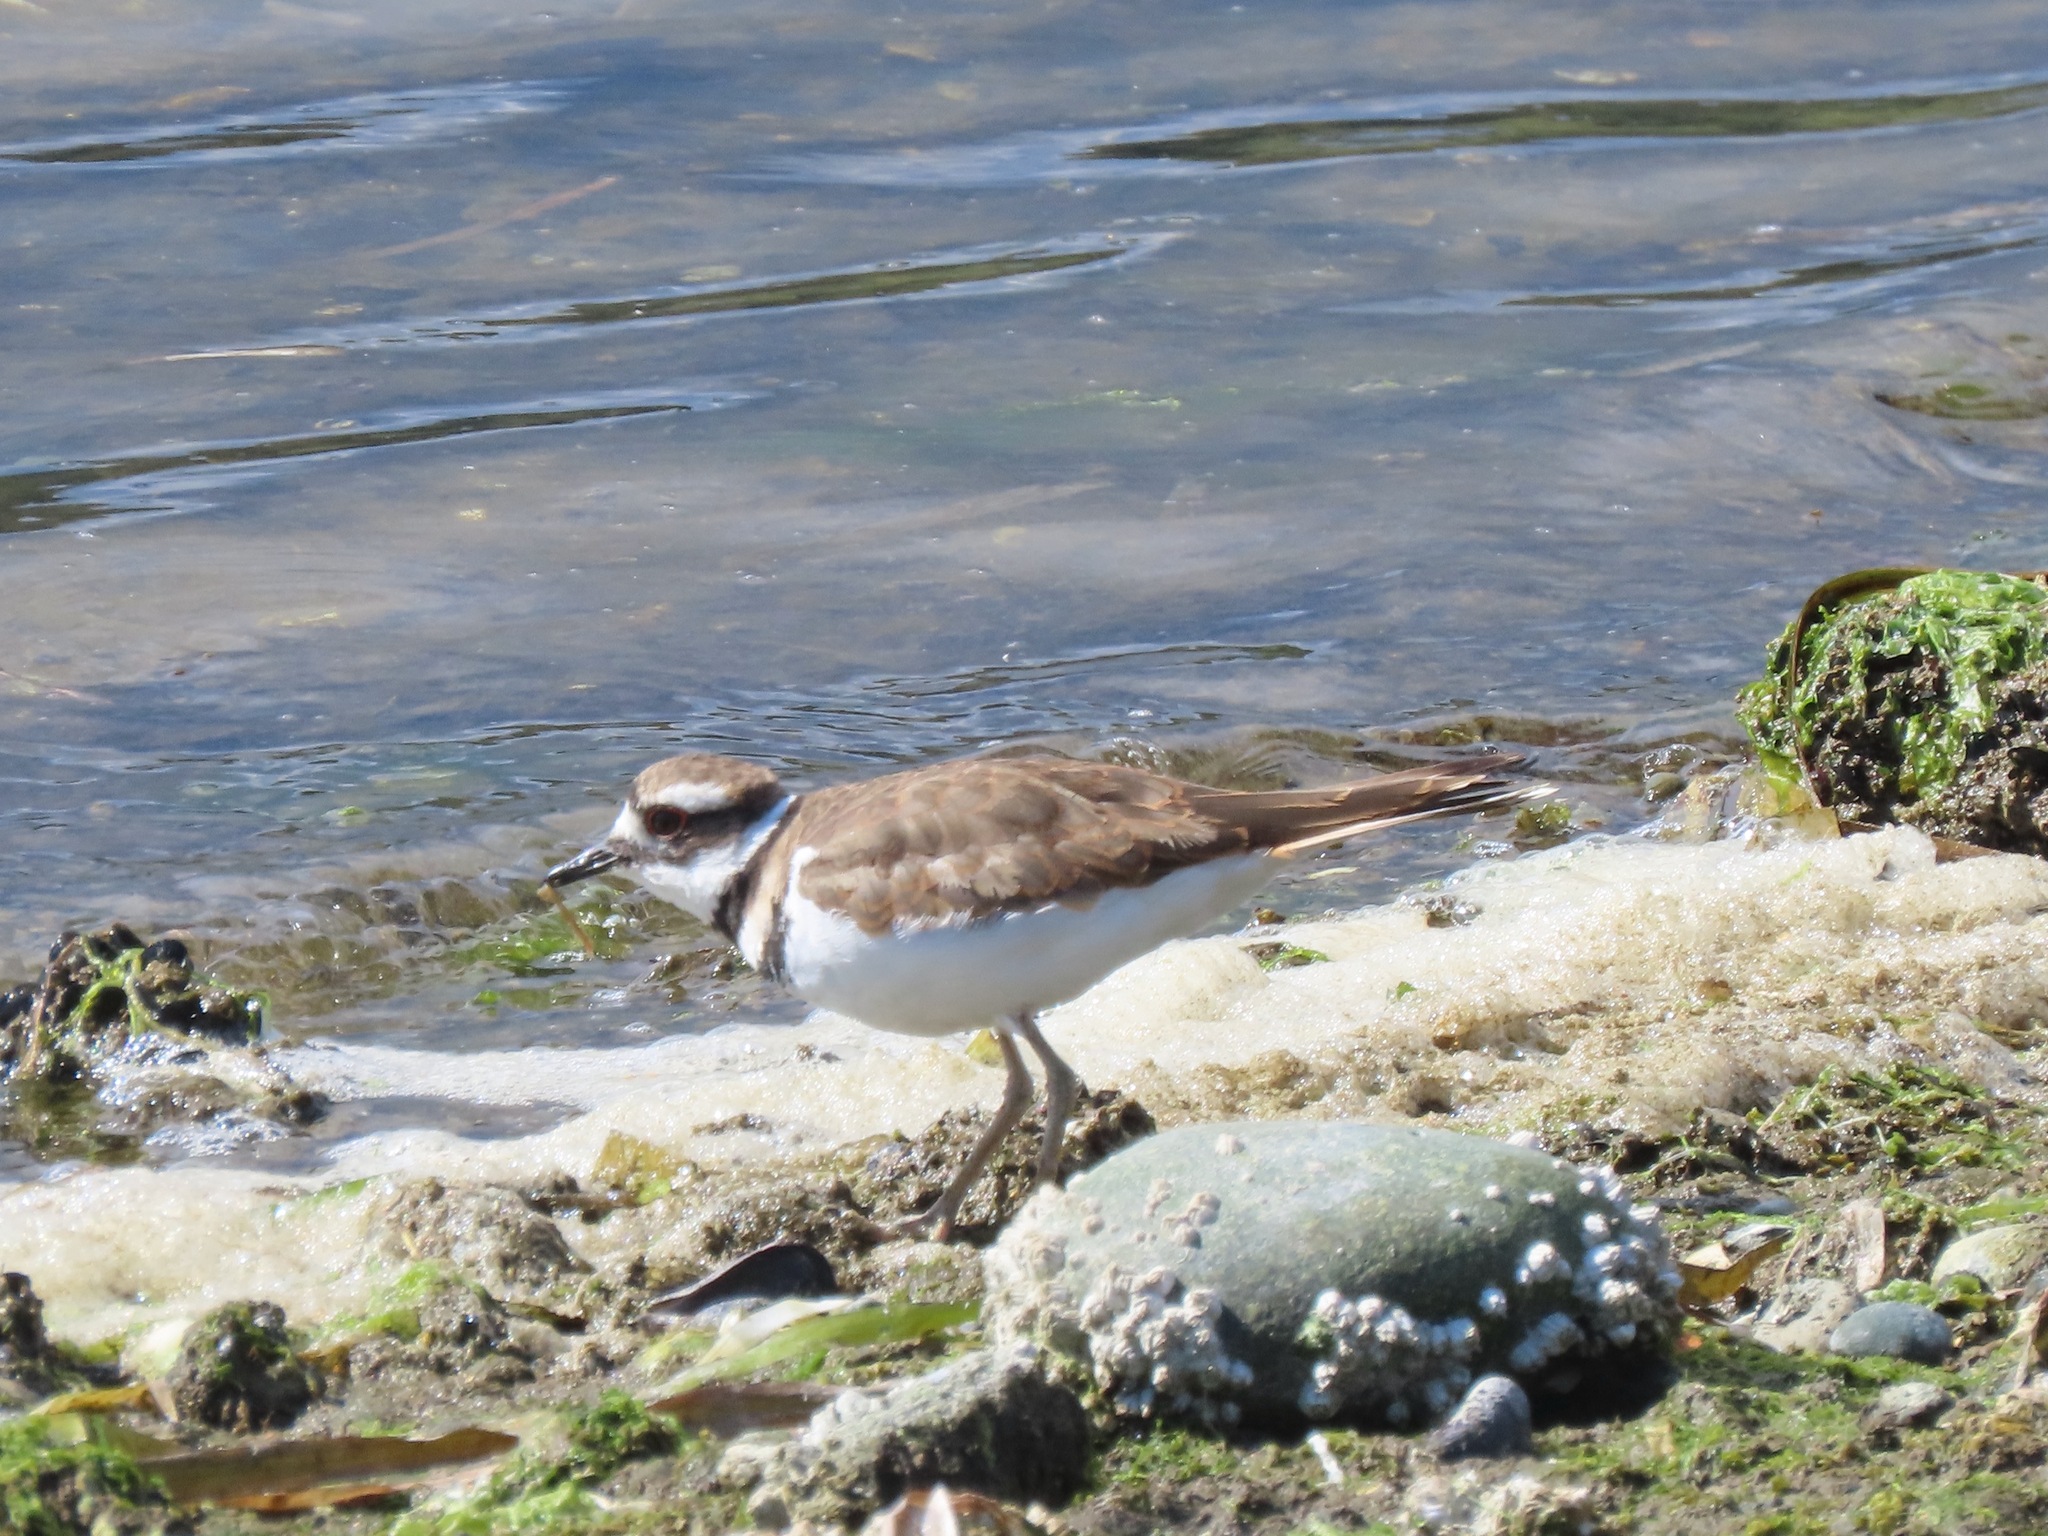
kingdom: Animalia
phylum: Chordata
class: Aves
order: Charadriiformes
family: Charadriidae
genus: Charadrius
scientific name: Charadrius vociferus
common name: Killdeer
